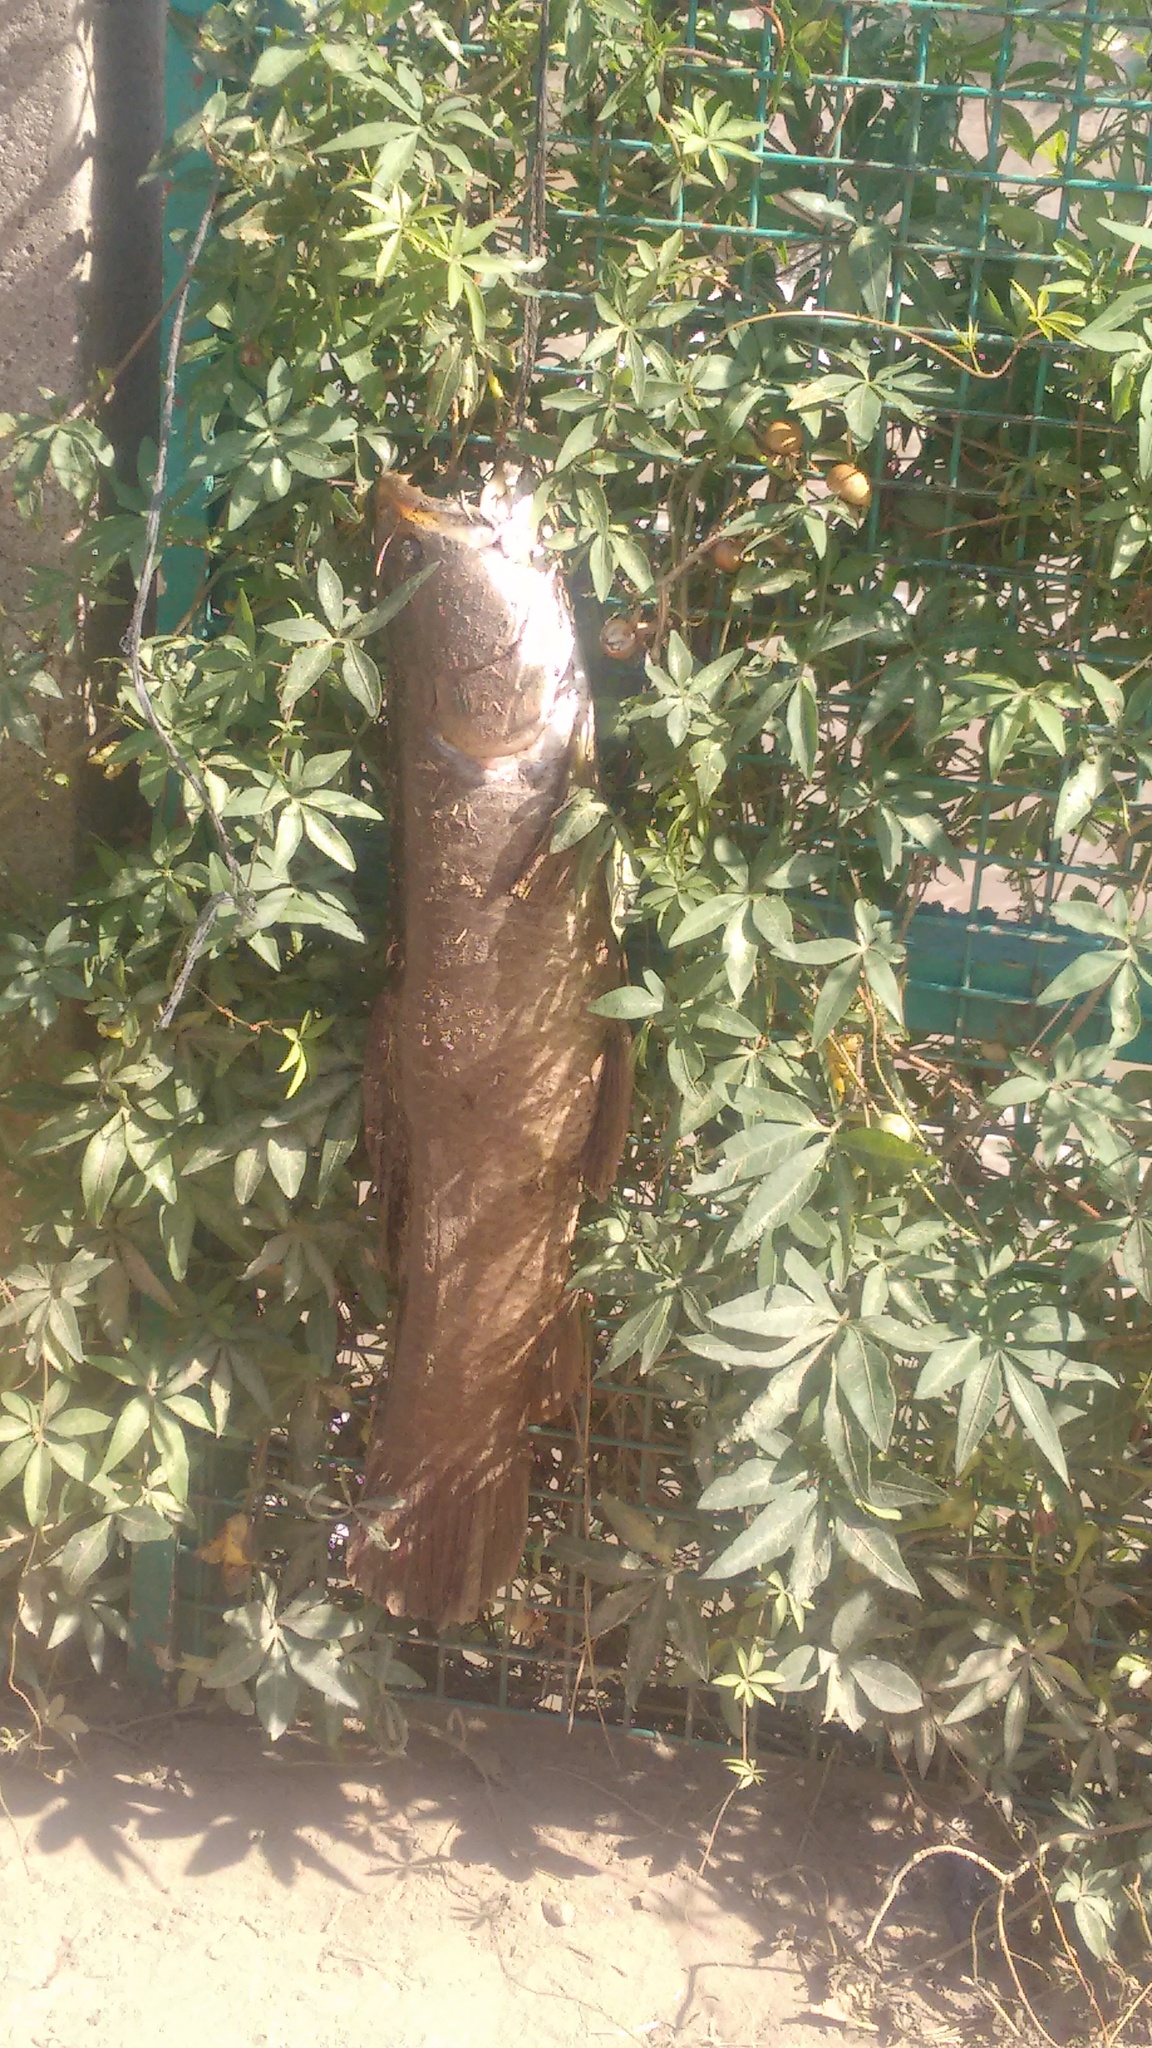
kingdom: Animalia
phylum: Chordata
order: Characiformes
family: Erythrinidae
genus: Hoplias
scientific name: Hoplias argentinensis
